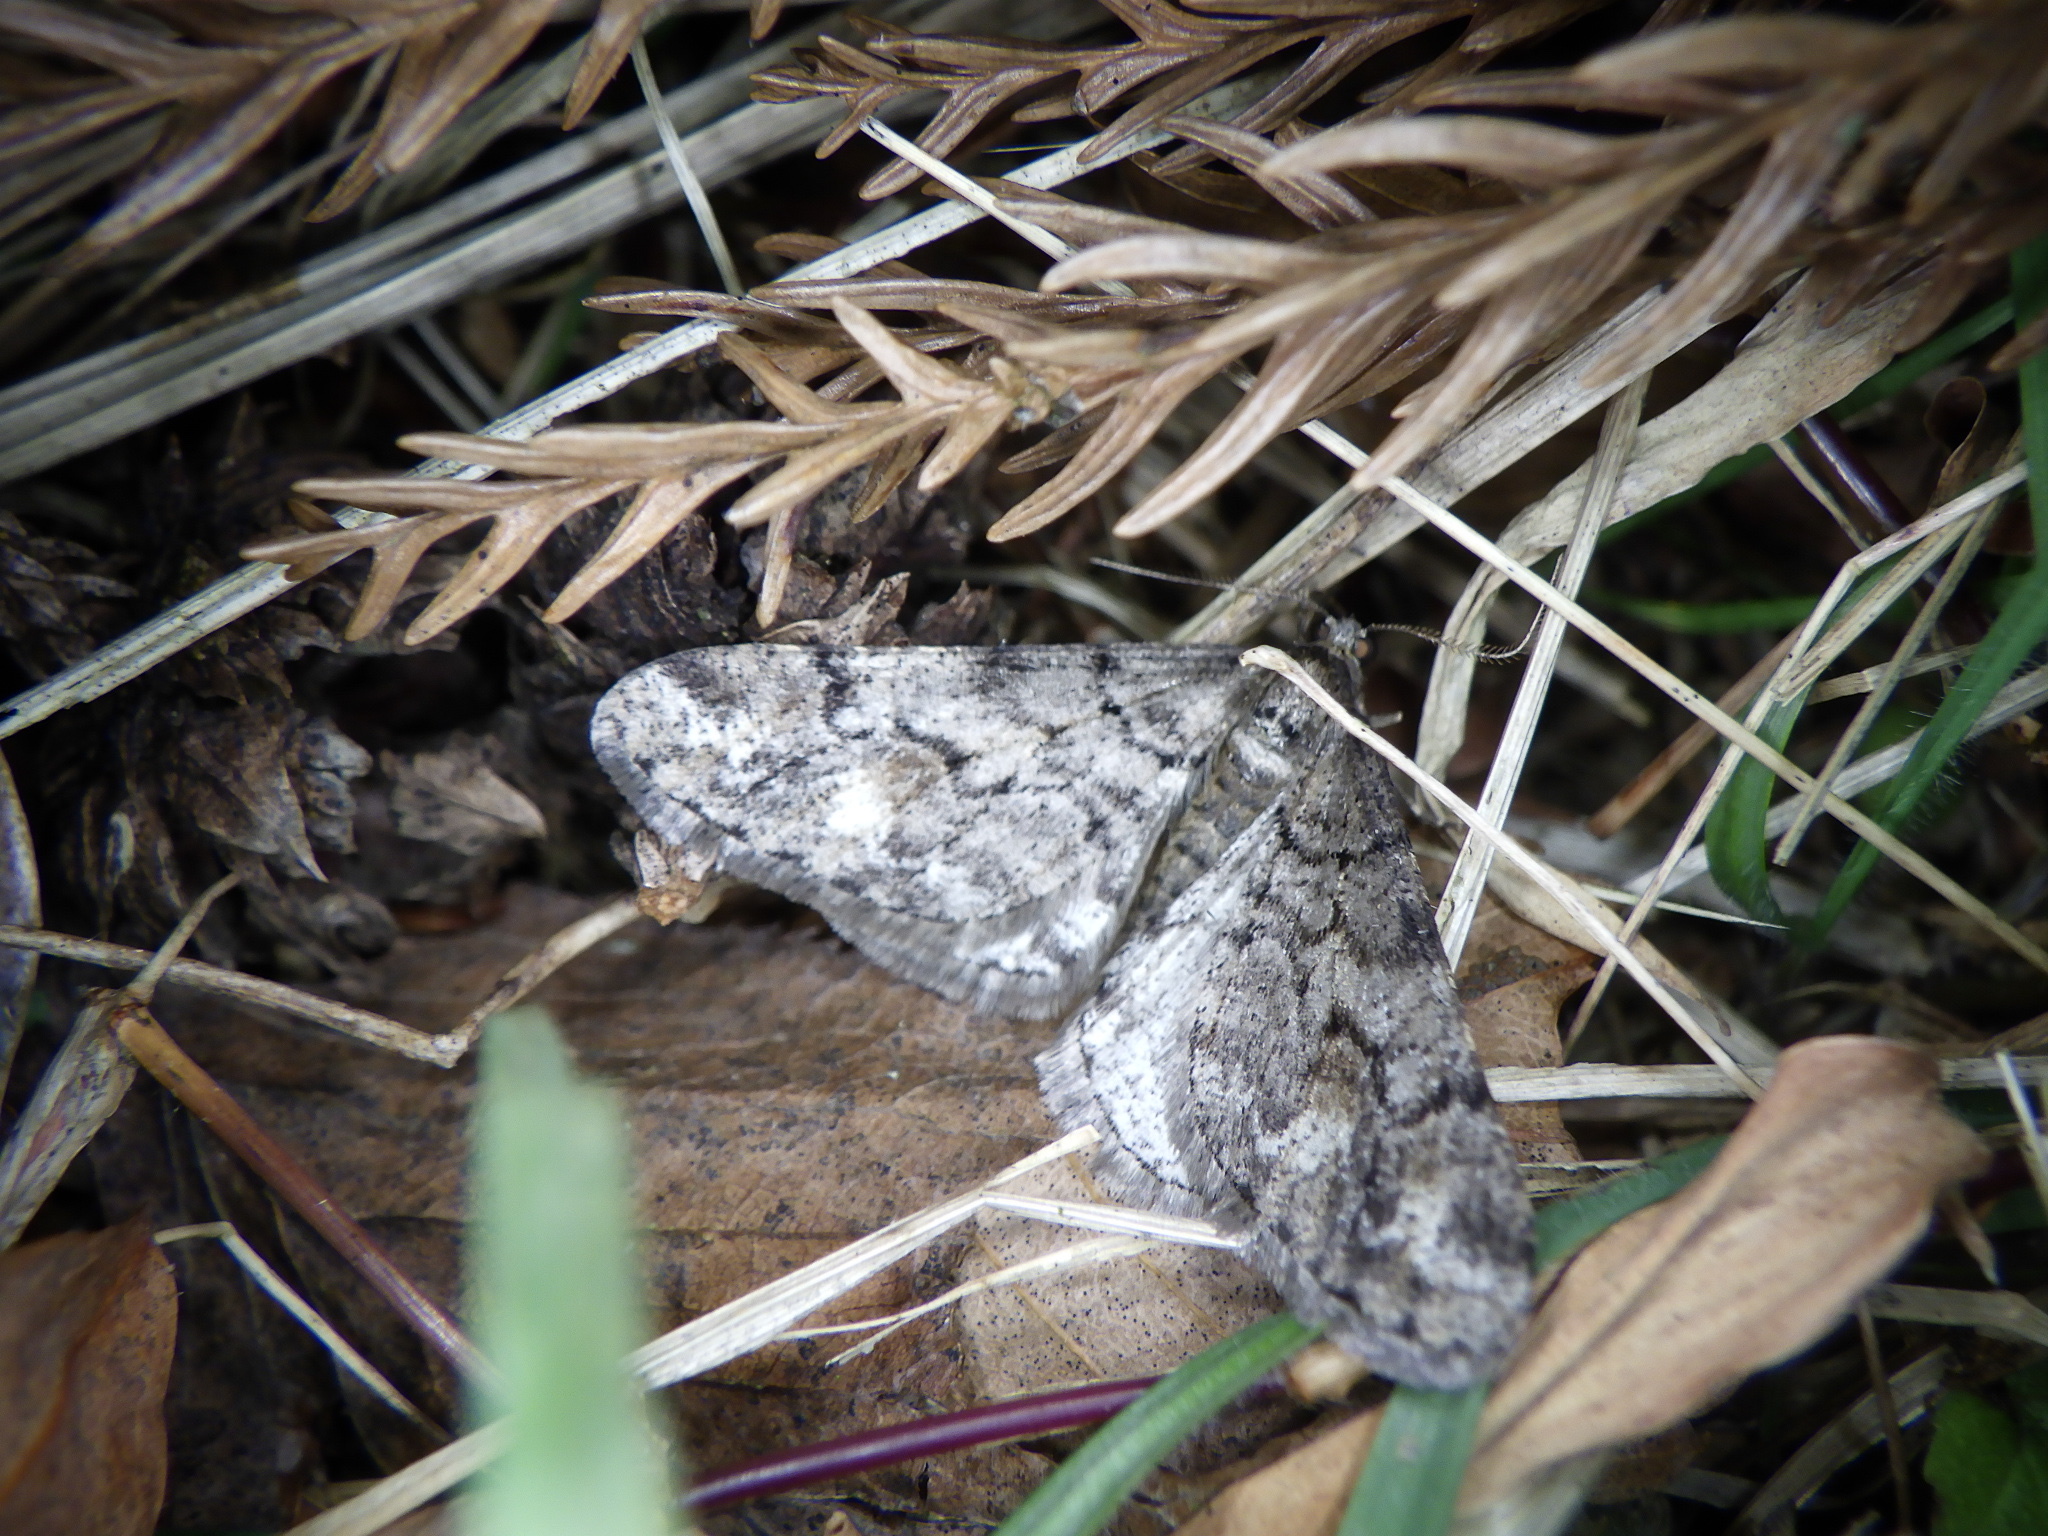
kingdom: Animalia
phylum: Arthropoda
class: Insecta
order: Lepidoptera
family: Geometridae
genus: Agriopis
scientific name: Agriopis dira
